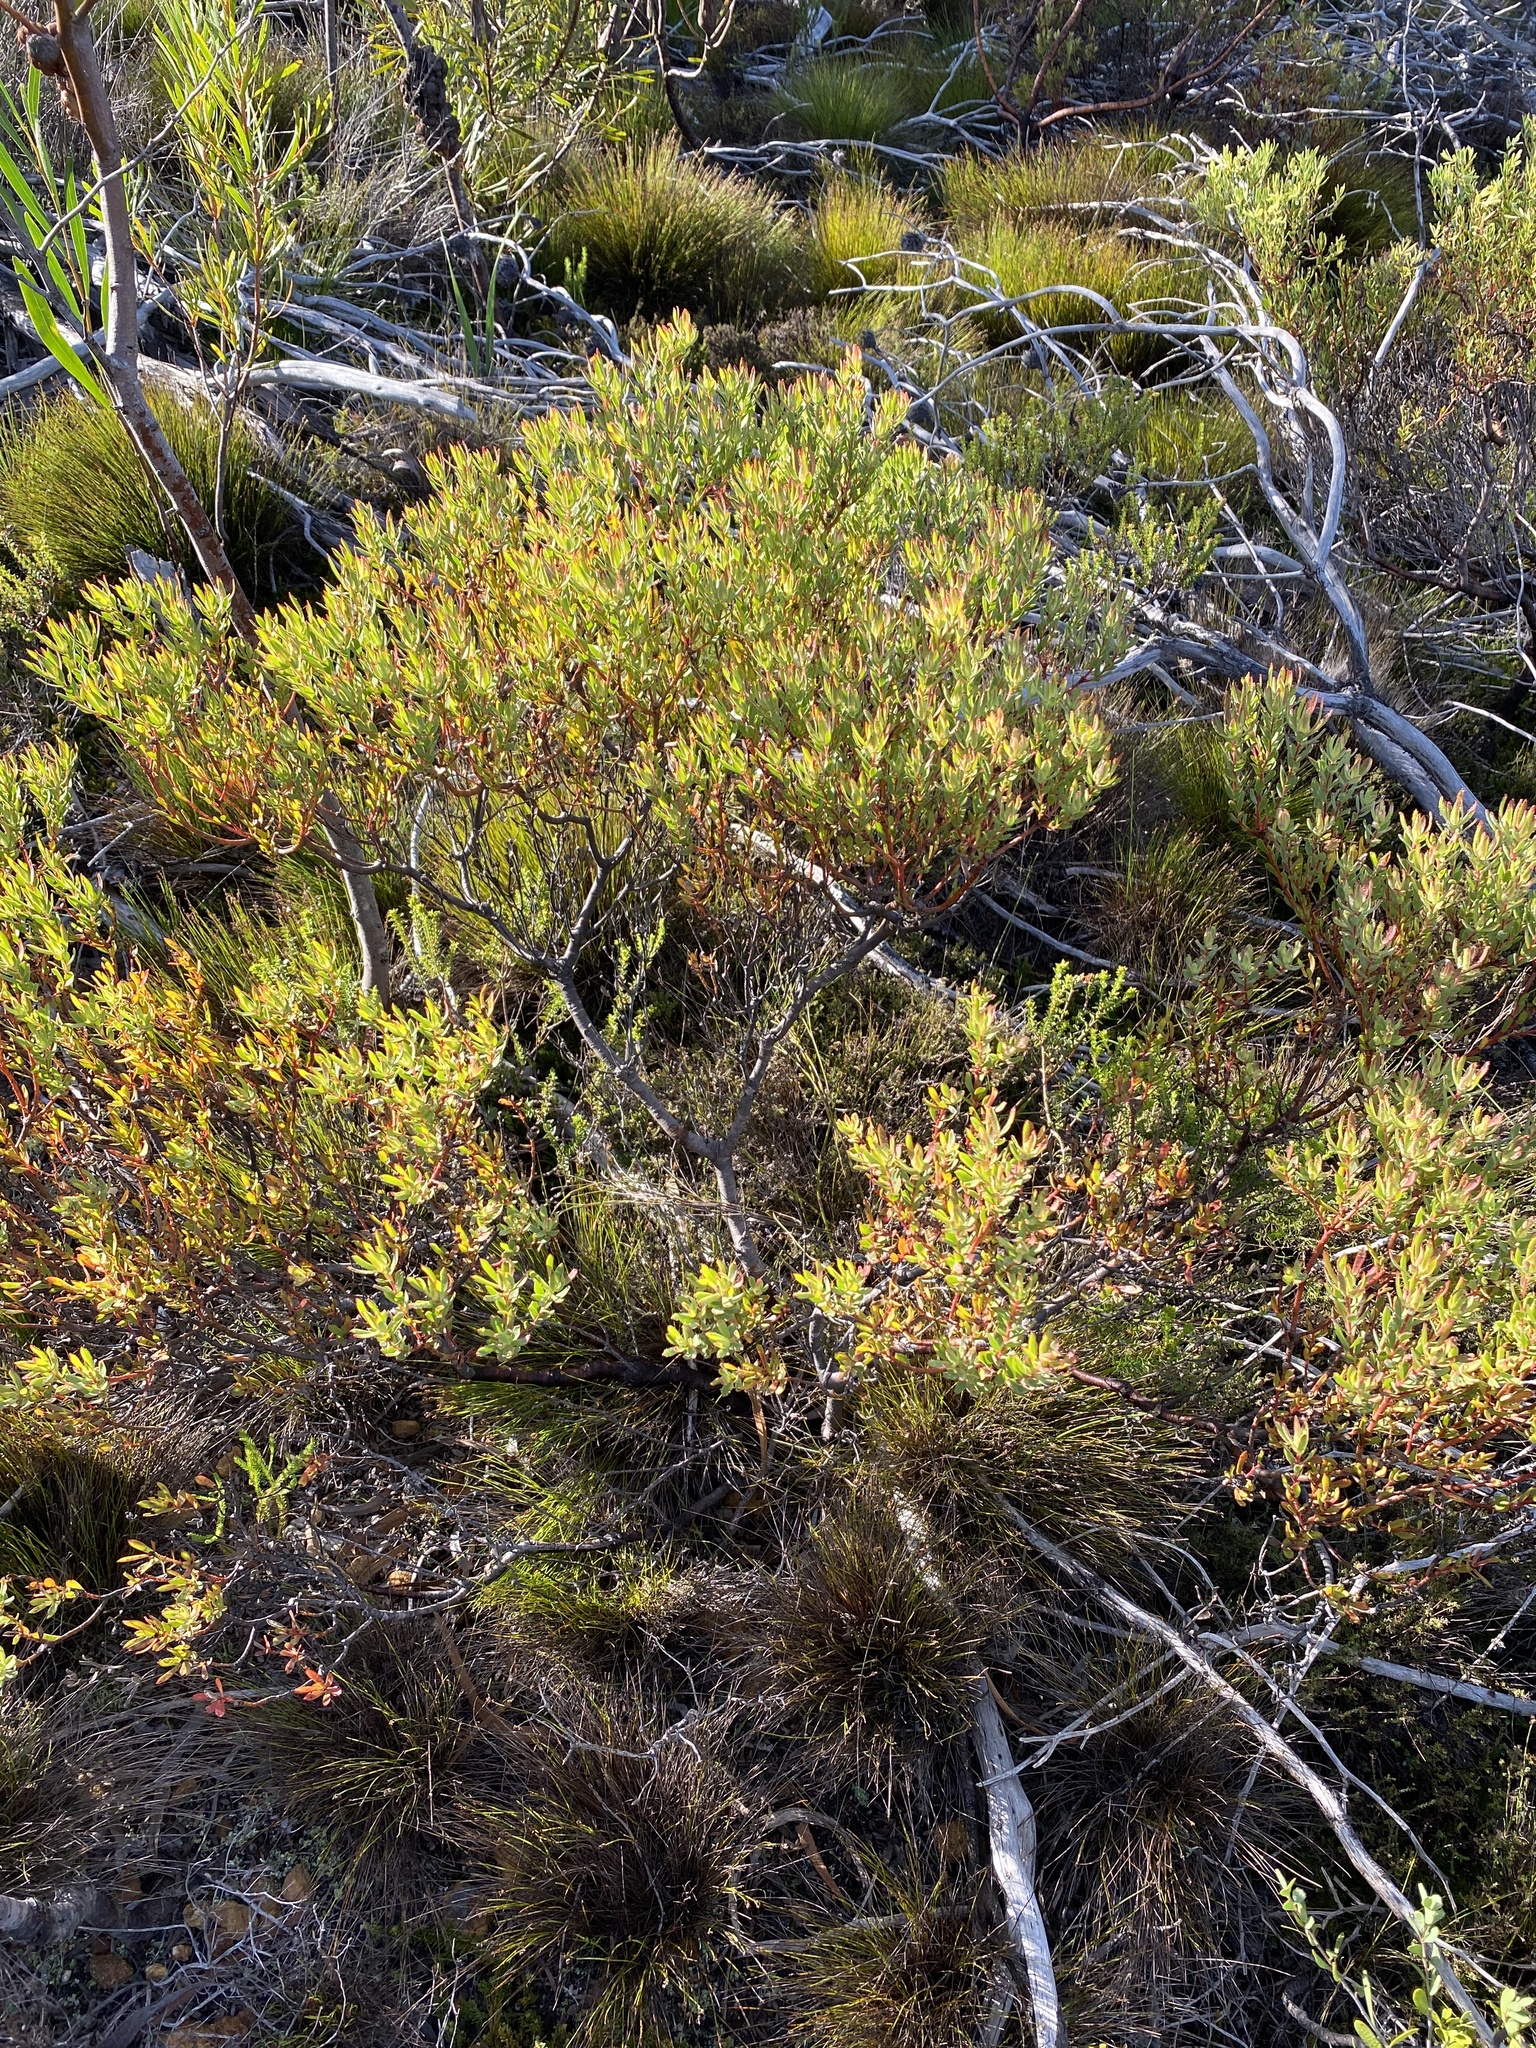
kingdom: Plantae
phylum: Tracheophyta
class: Magnoliopsida
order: Proteales
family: Proteaceae
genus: Leucadendron
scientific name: Leucadendron modestum
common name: Rough-leaf conebush
